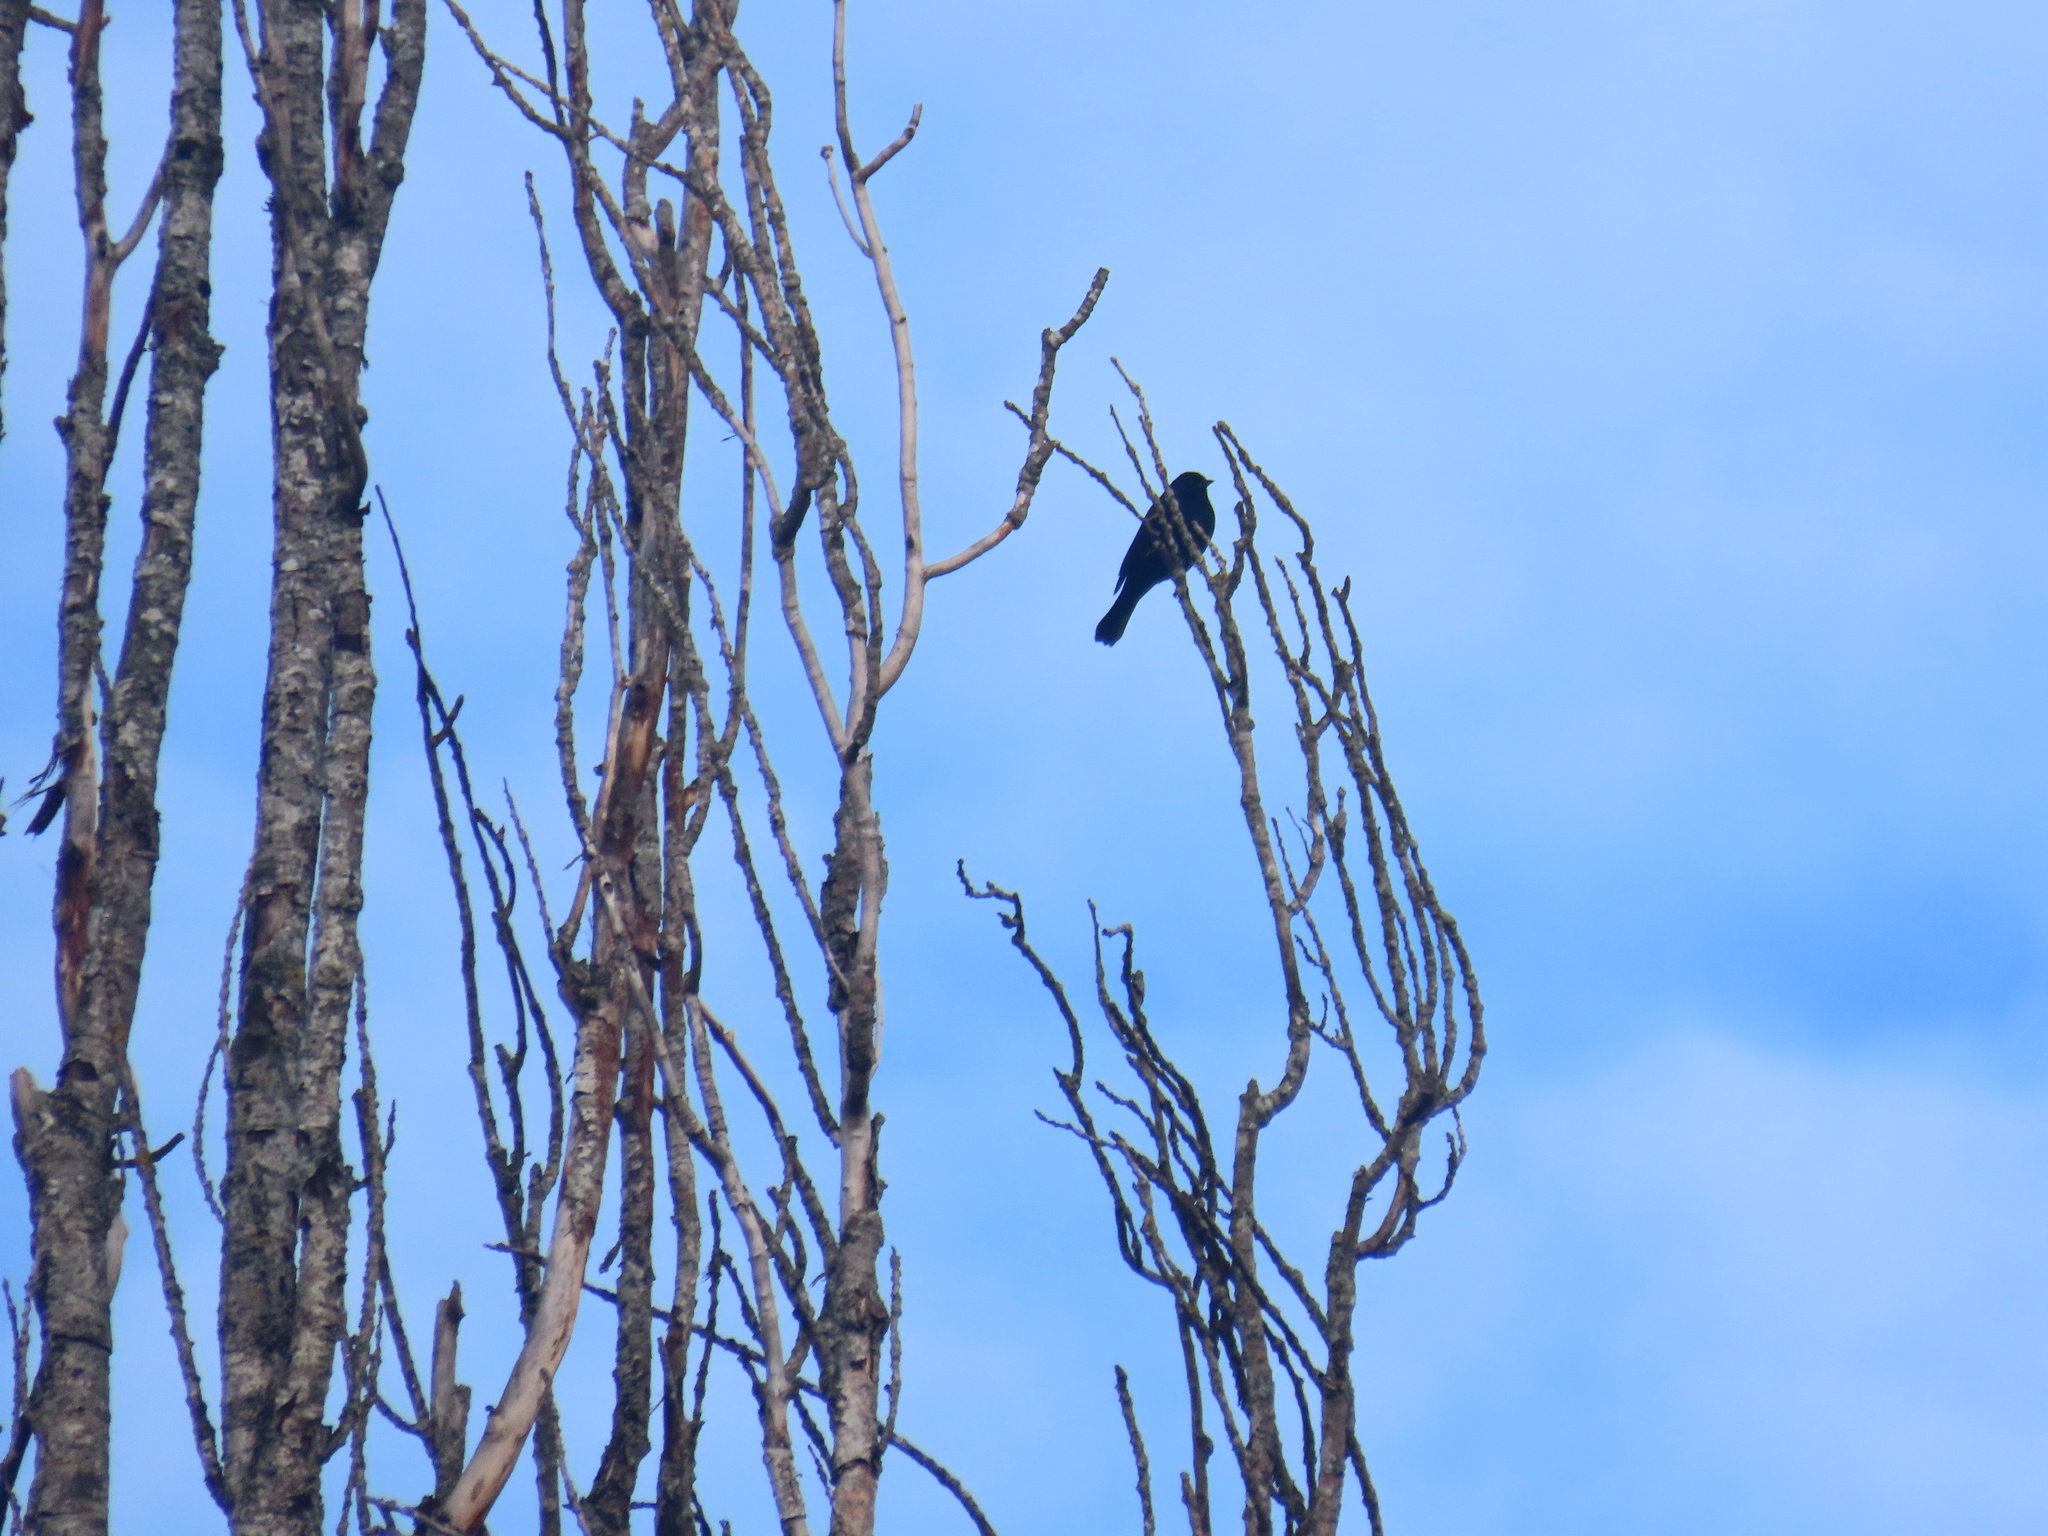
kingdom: Animalia
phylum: Chordata
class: Aves
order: Passeriformes
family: Icteridae
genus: Agelaius
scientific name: Agelaius phoeniceus
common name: Red-winged blackbird
